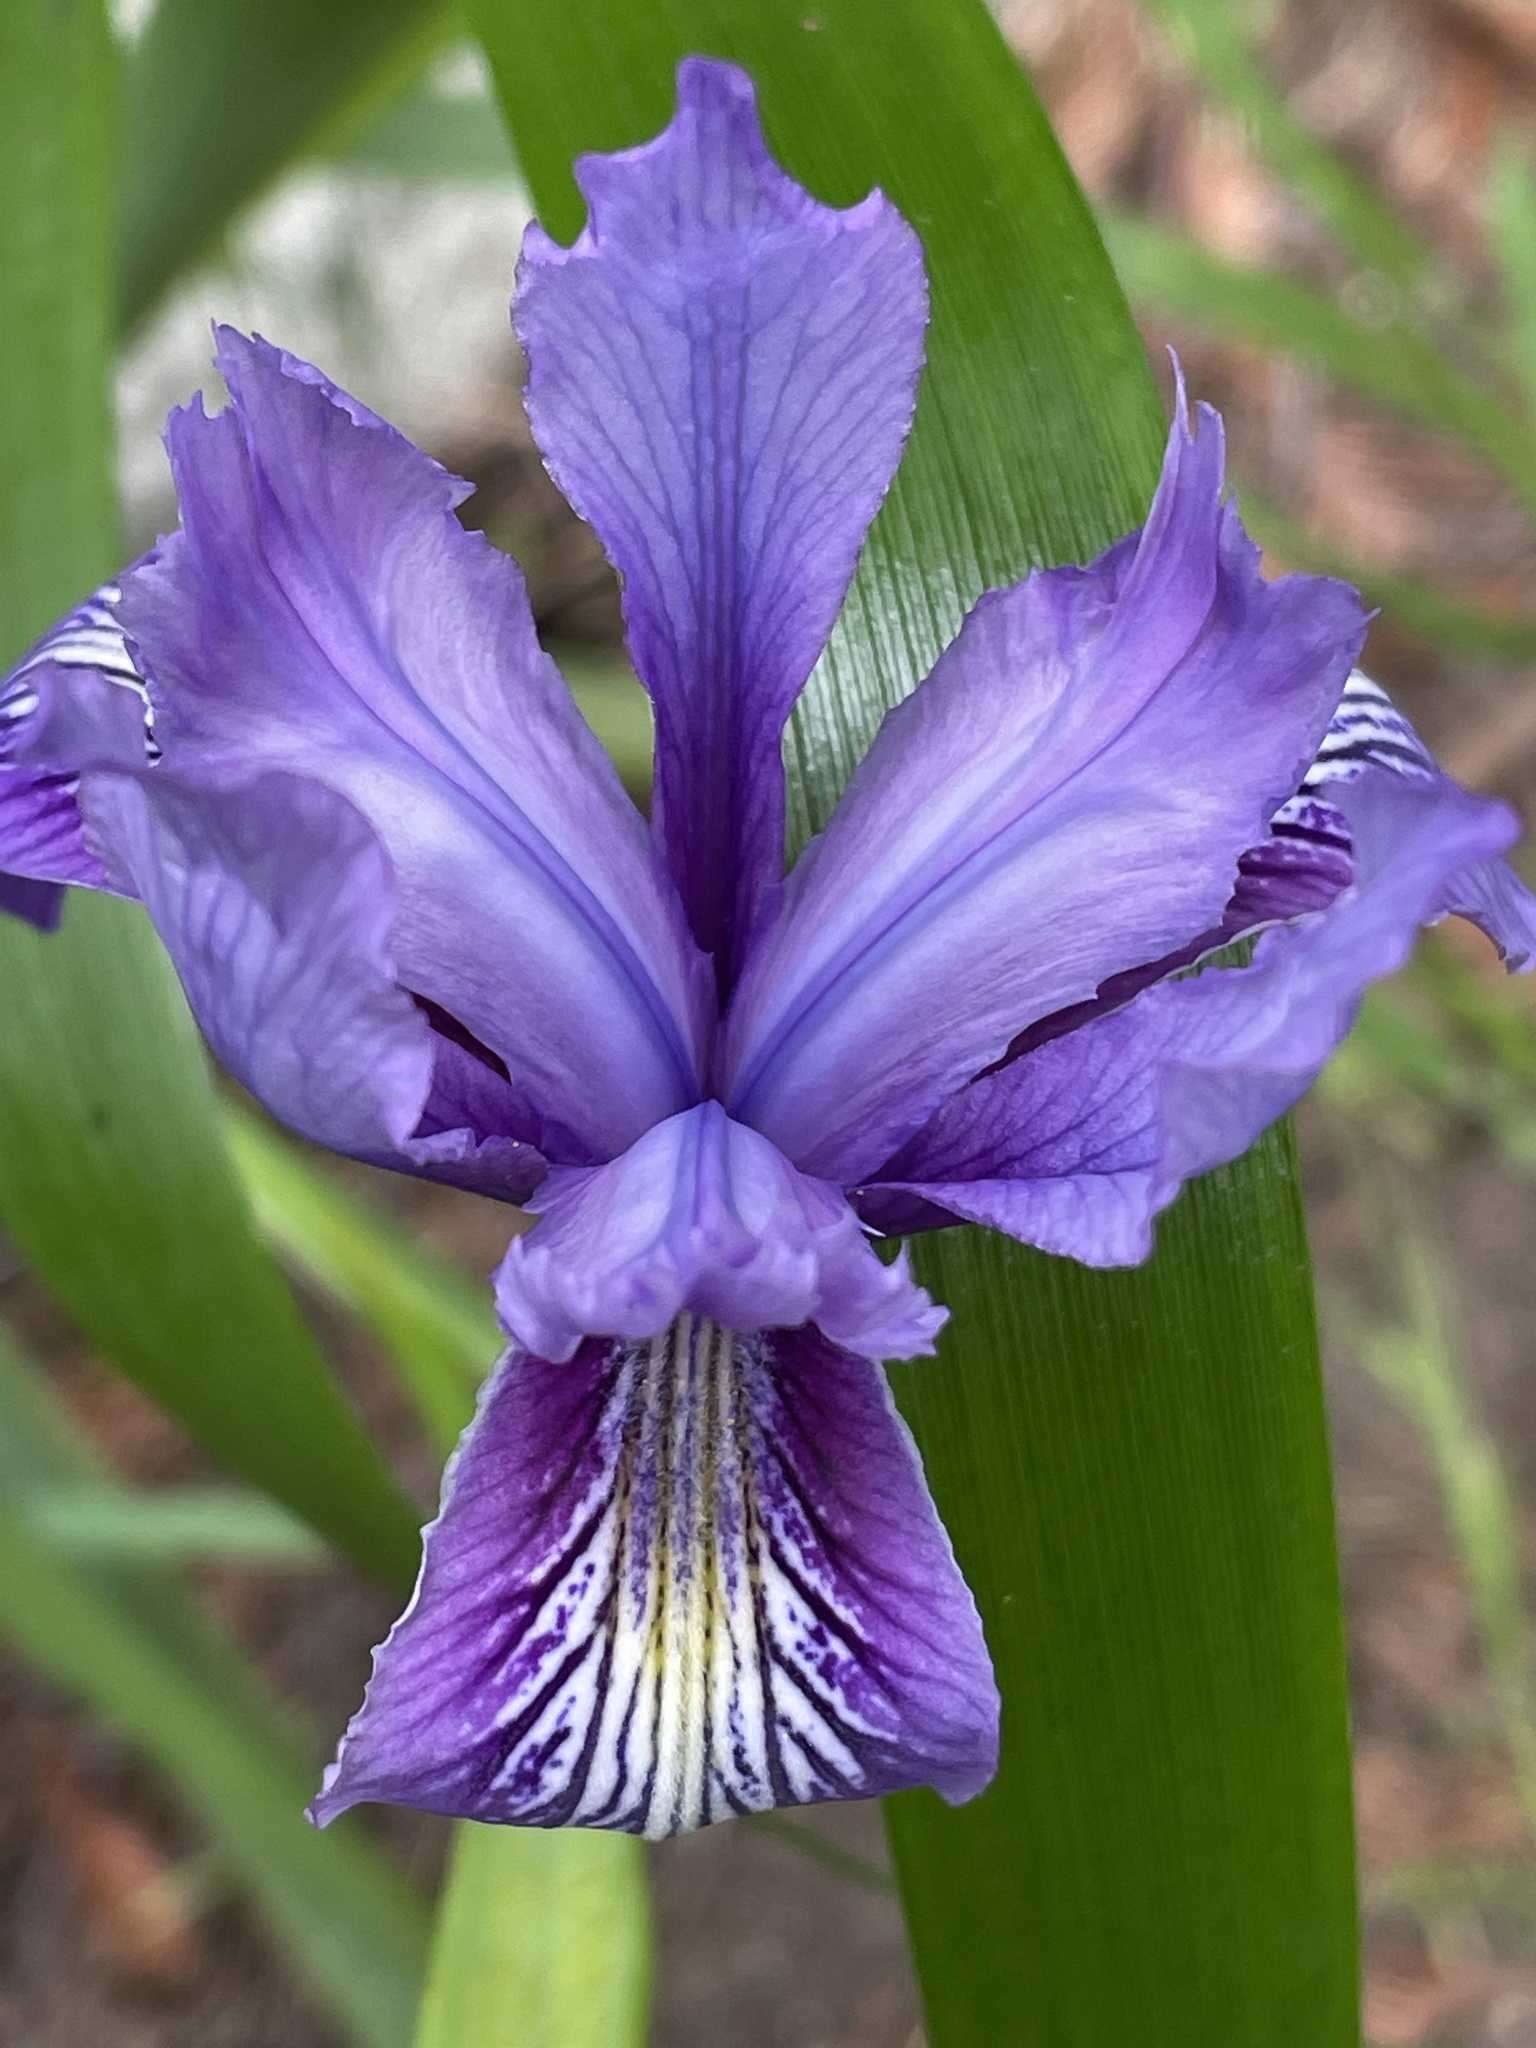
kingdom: Plantae
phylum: Tracheophyta
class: Liliopsida
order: Asparagales
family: Iridaceae
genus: Iris
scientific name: Iris douglasiana
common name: Marin iris
